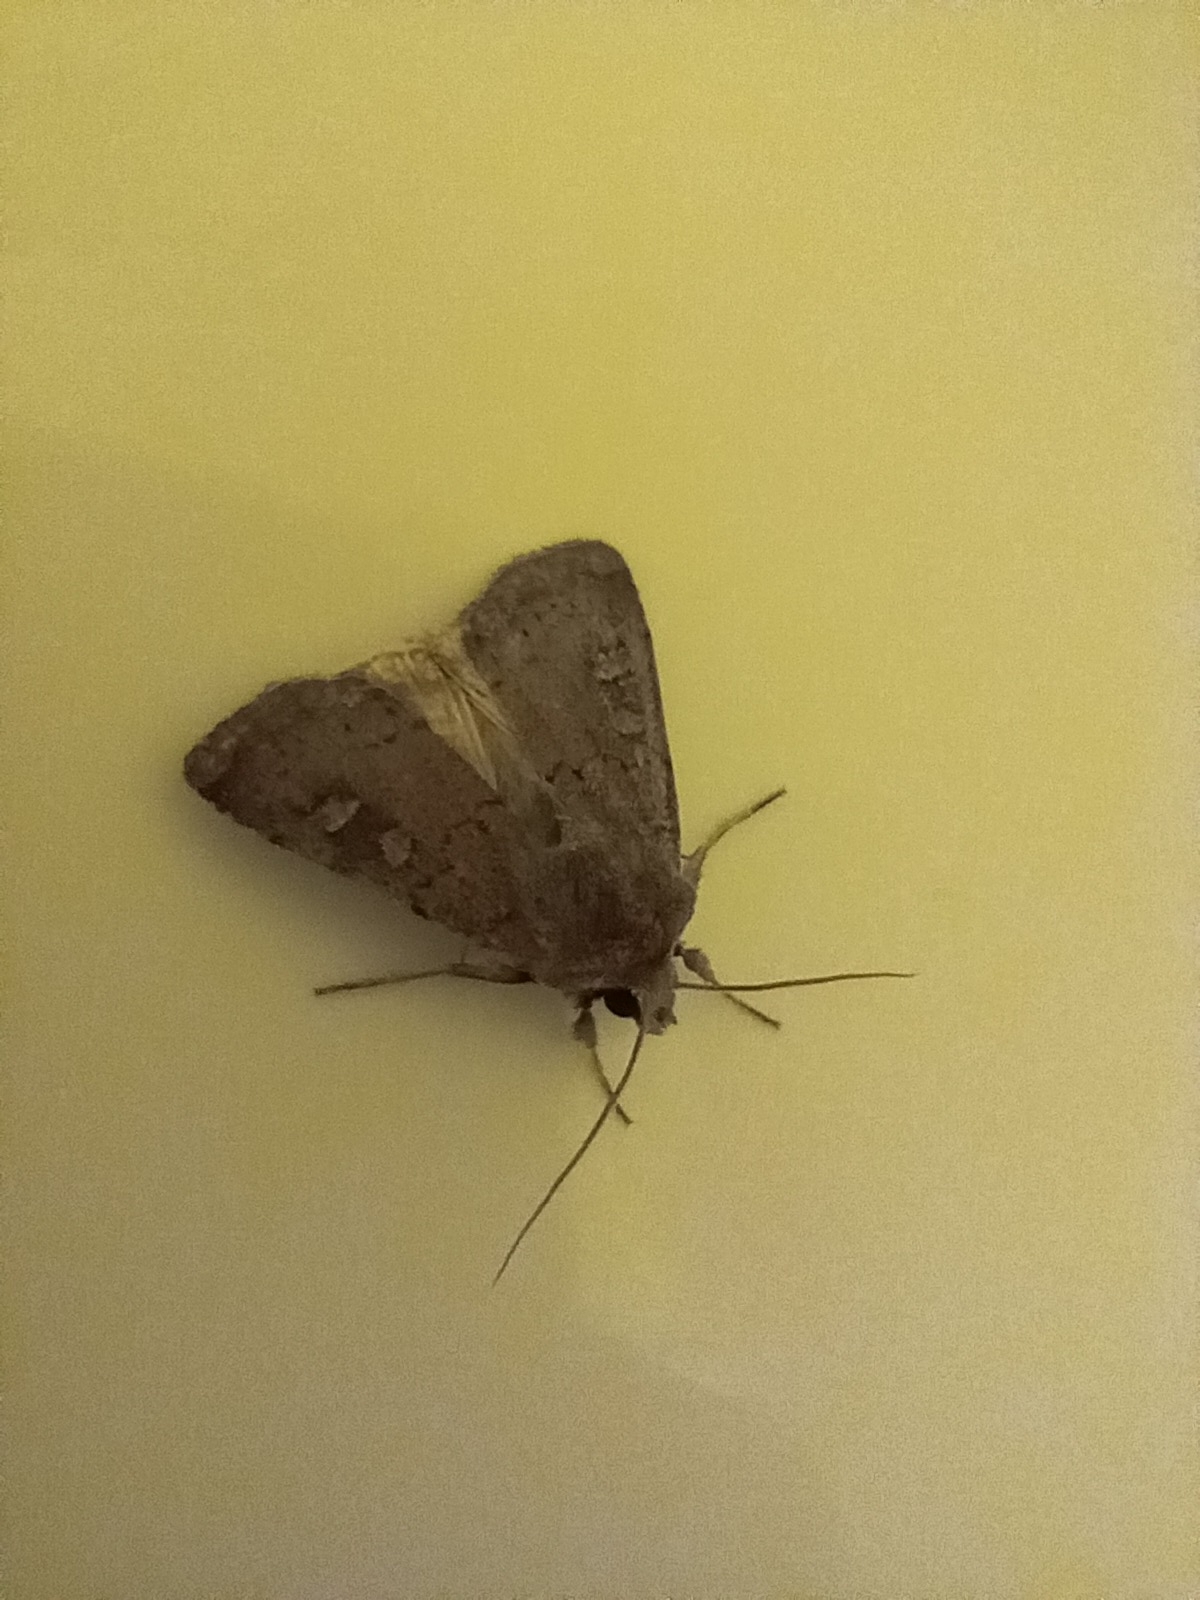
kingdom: Animalia
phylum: Arthropoda
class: Insecta
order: Lepidoptera
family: Noctuidae
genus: Xestia
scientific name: Xestia xanthographa
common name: Square-spot rustic
